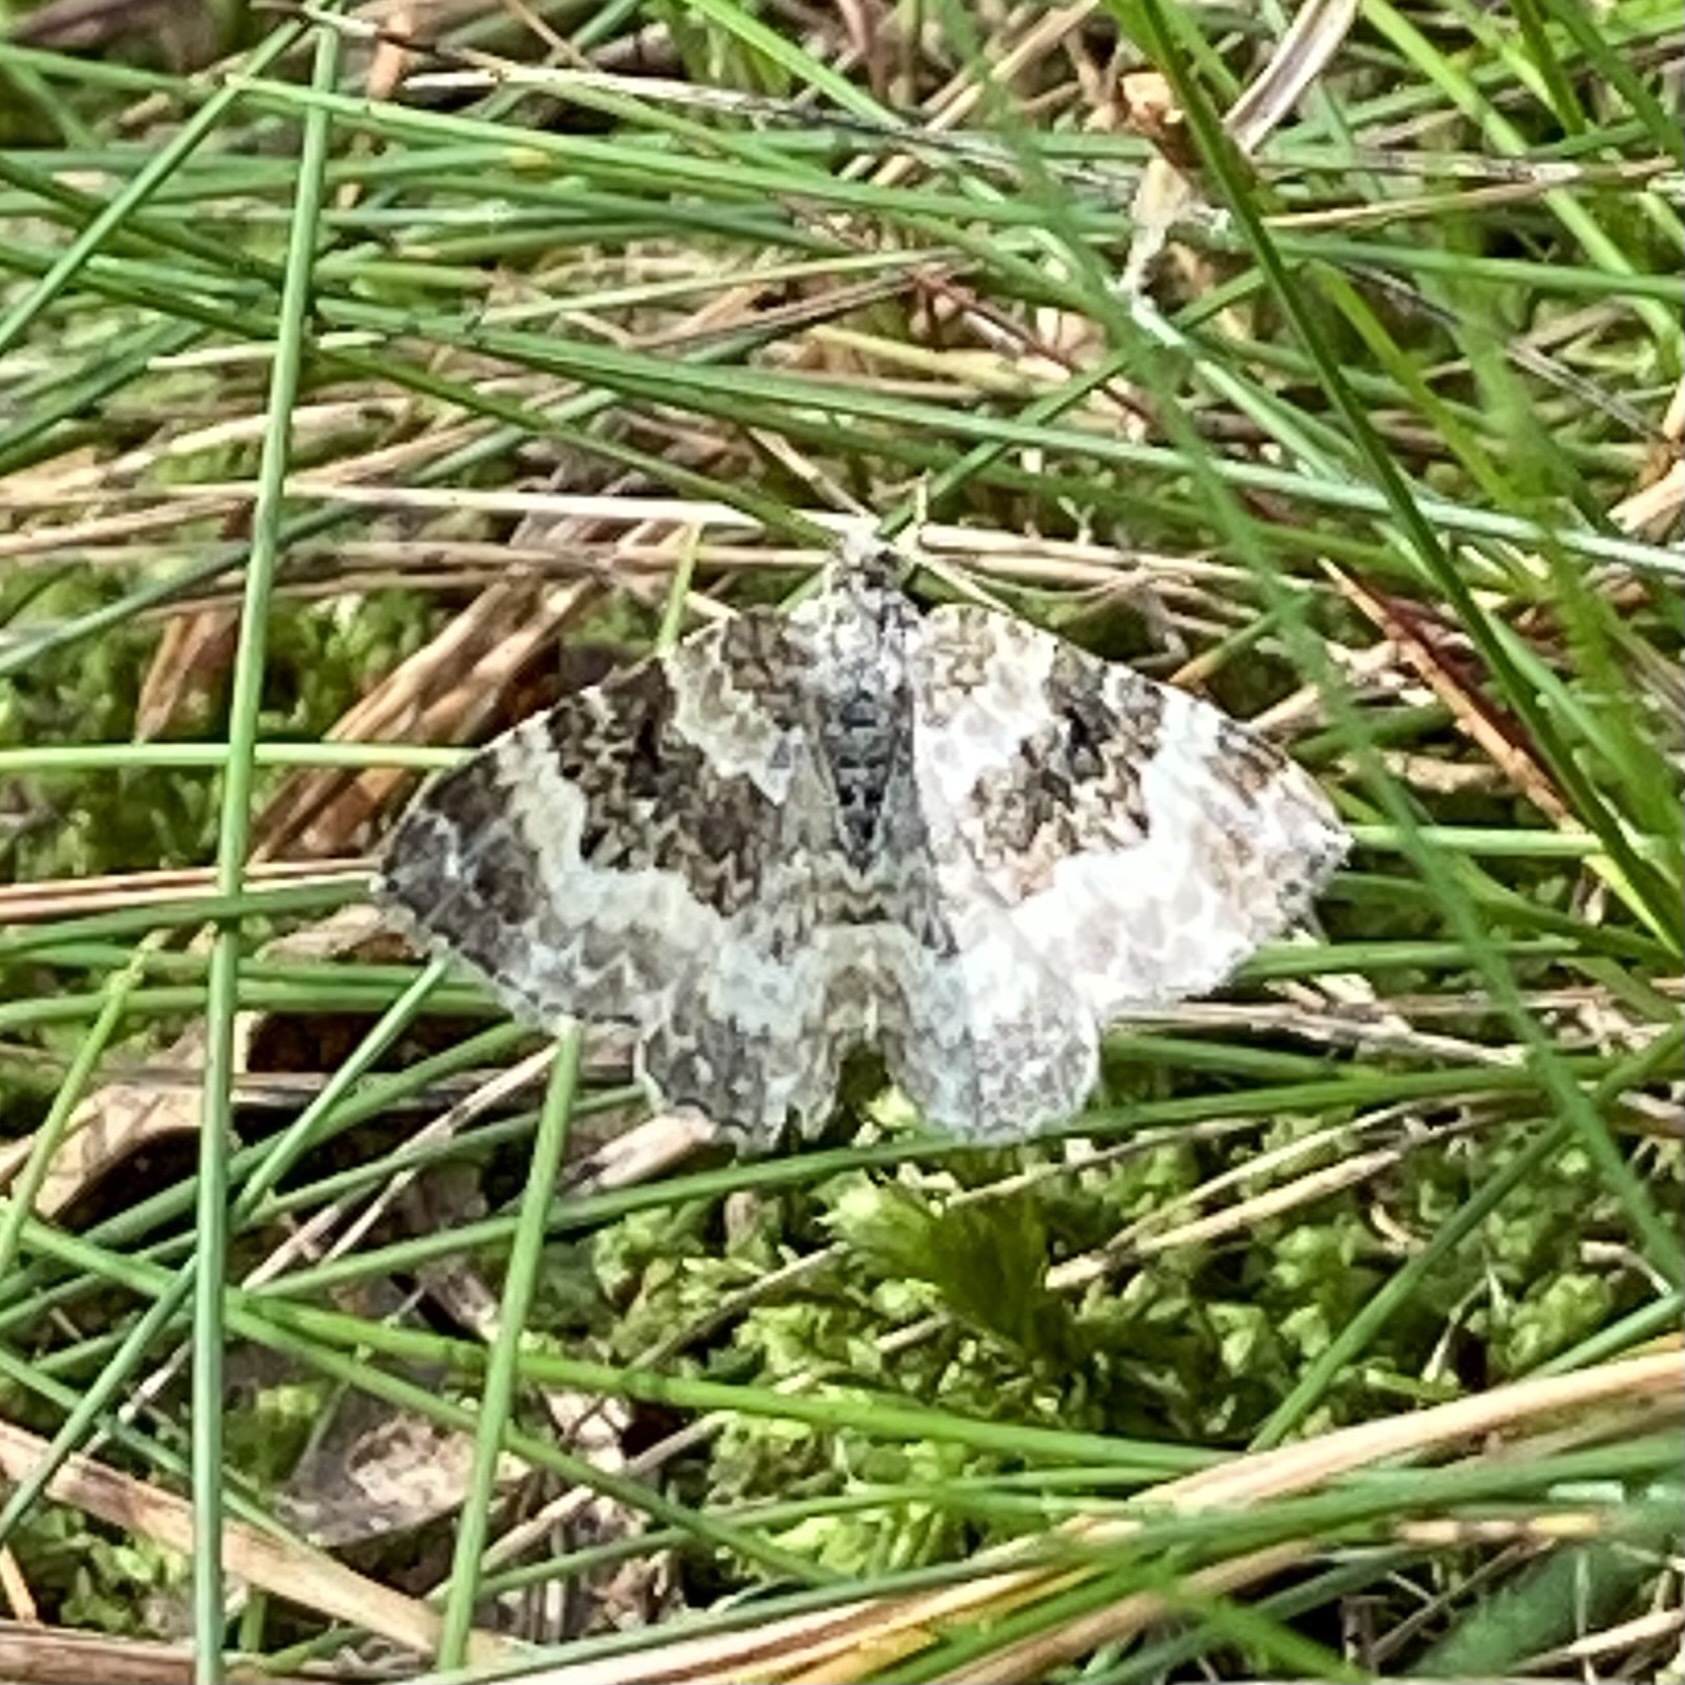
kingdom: Animalia
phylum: Arthropoda
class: Insecta
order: Lepidoptera
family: Geometridae
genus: Epirrhoe
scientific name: Epirrhoe alternata
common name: Common carpet
